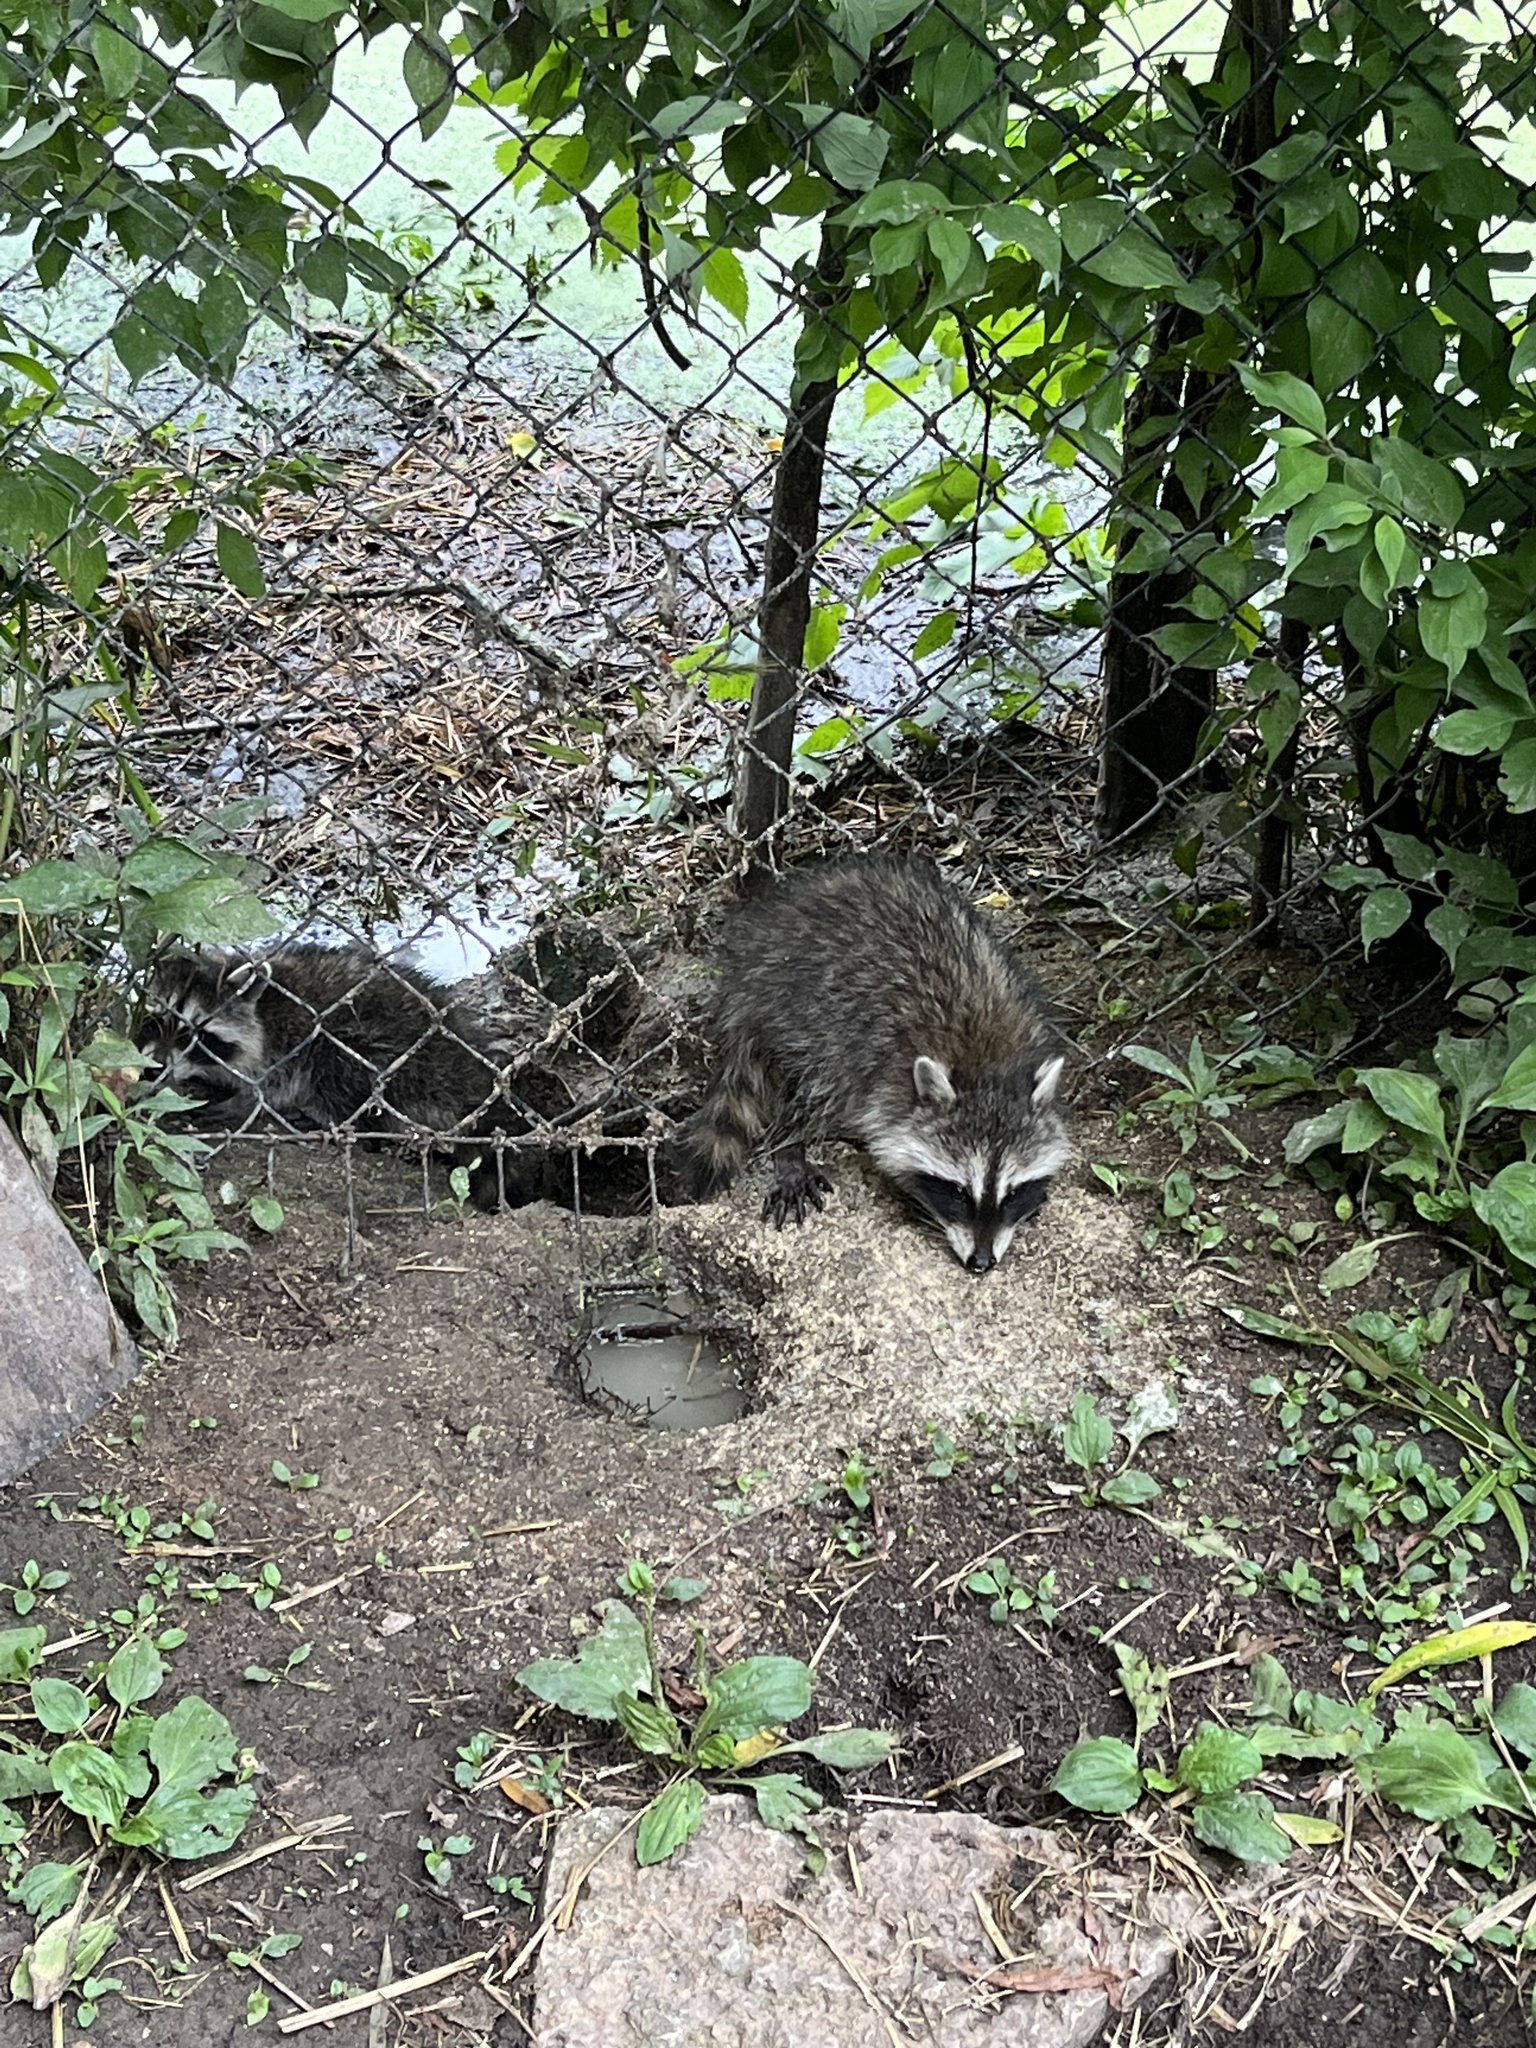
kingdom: Animalia
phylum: Chordata
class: Mammalia
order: Carnivora
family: Procyonidae
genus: Procyon
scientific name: Procyon lotor
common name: Raccoon
